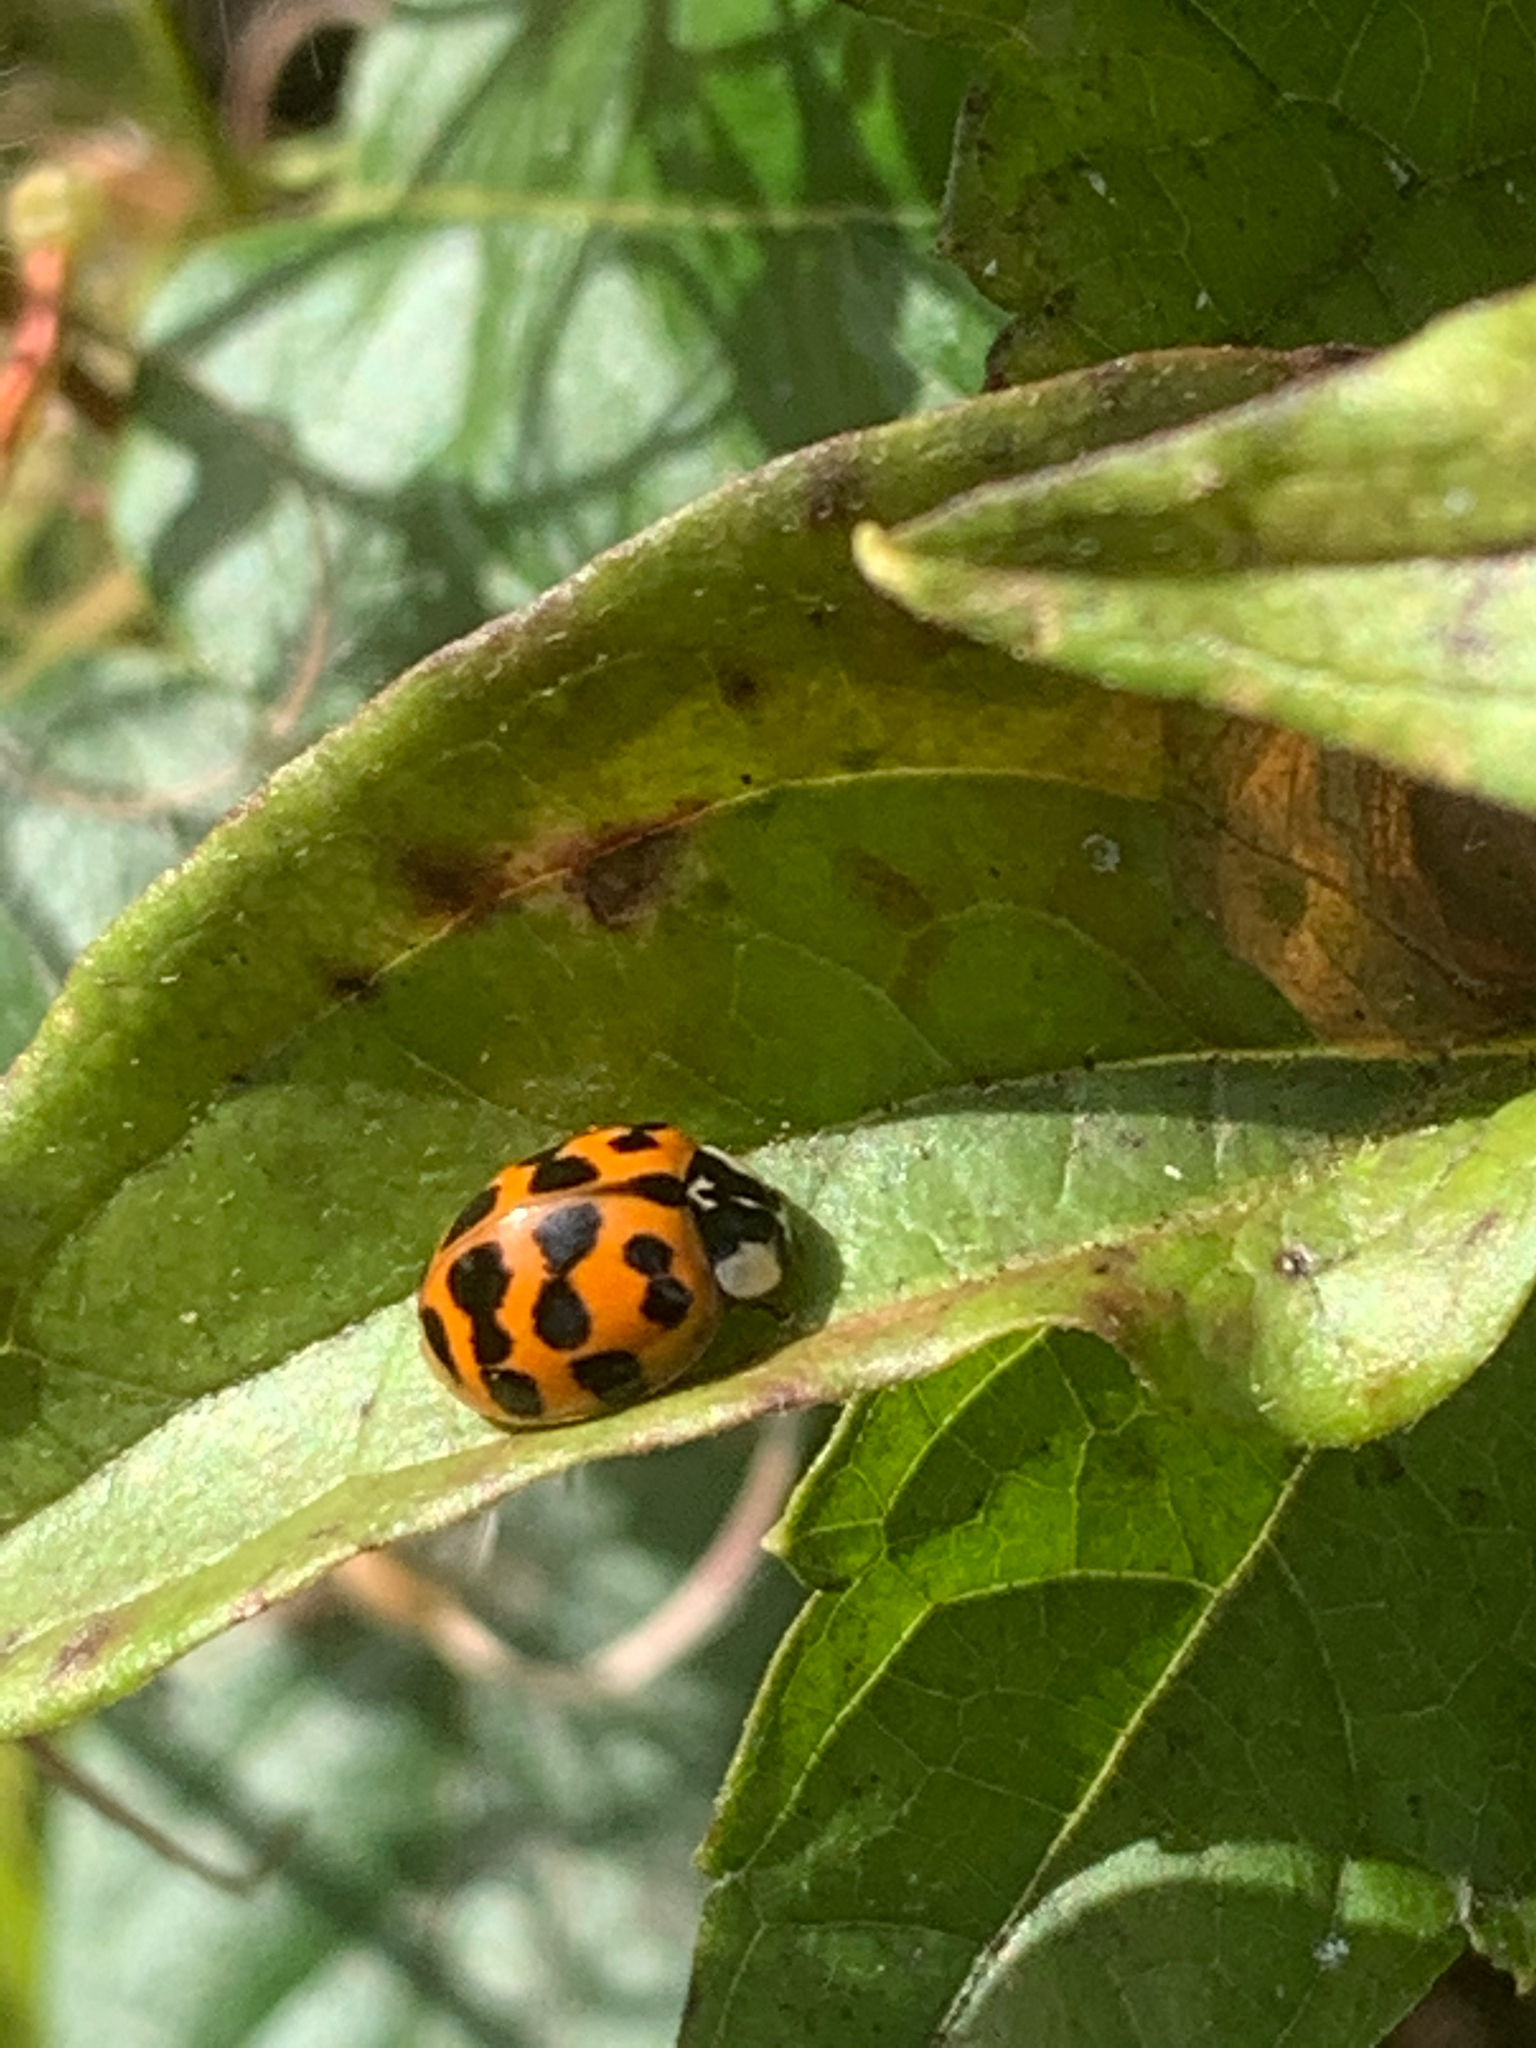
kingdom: Animalia
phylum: Arthropoda
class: Insecta
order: Coleoptera
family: Coccinellidae
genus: Harmonia
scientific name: Harmonia axyridis
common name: Harlequin ladybird
